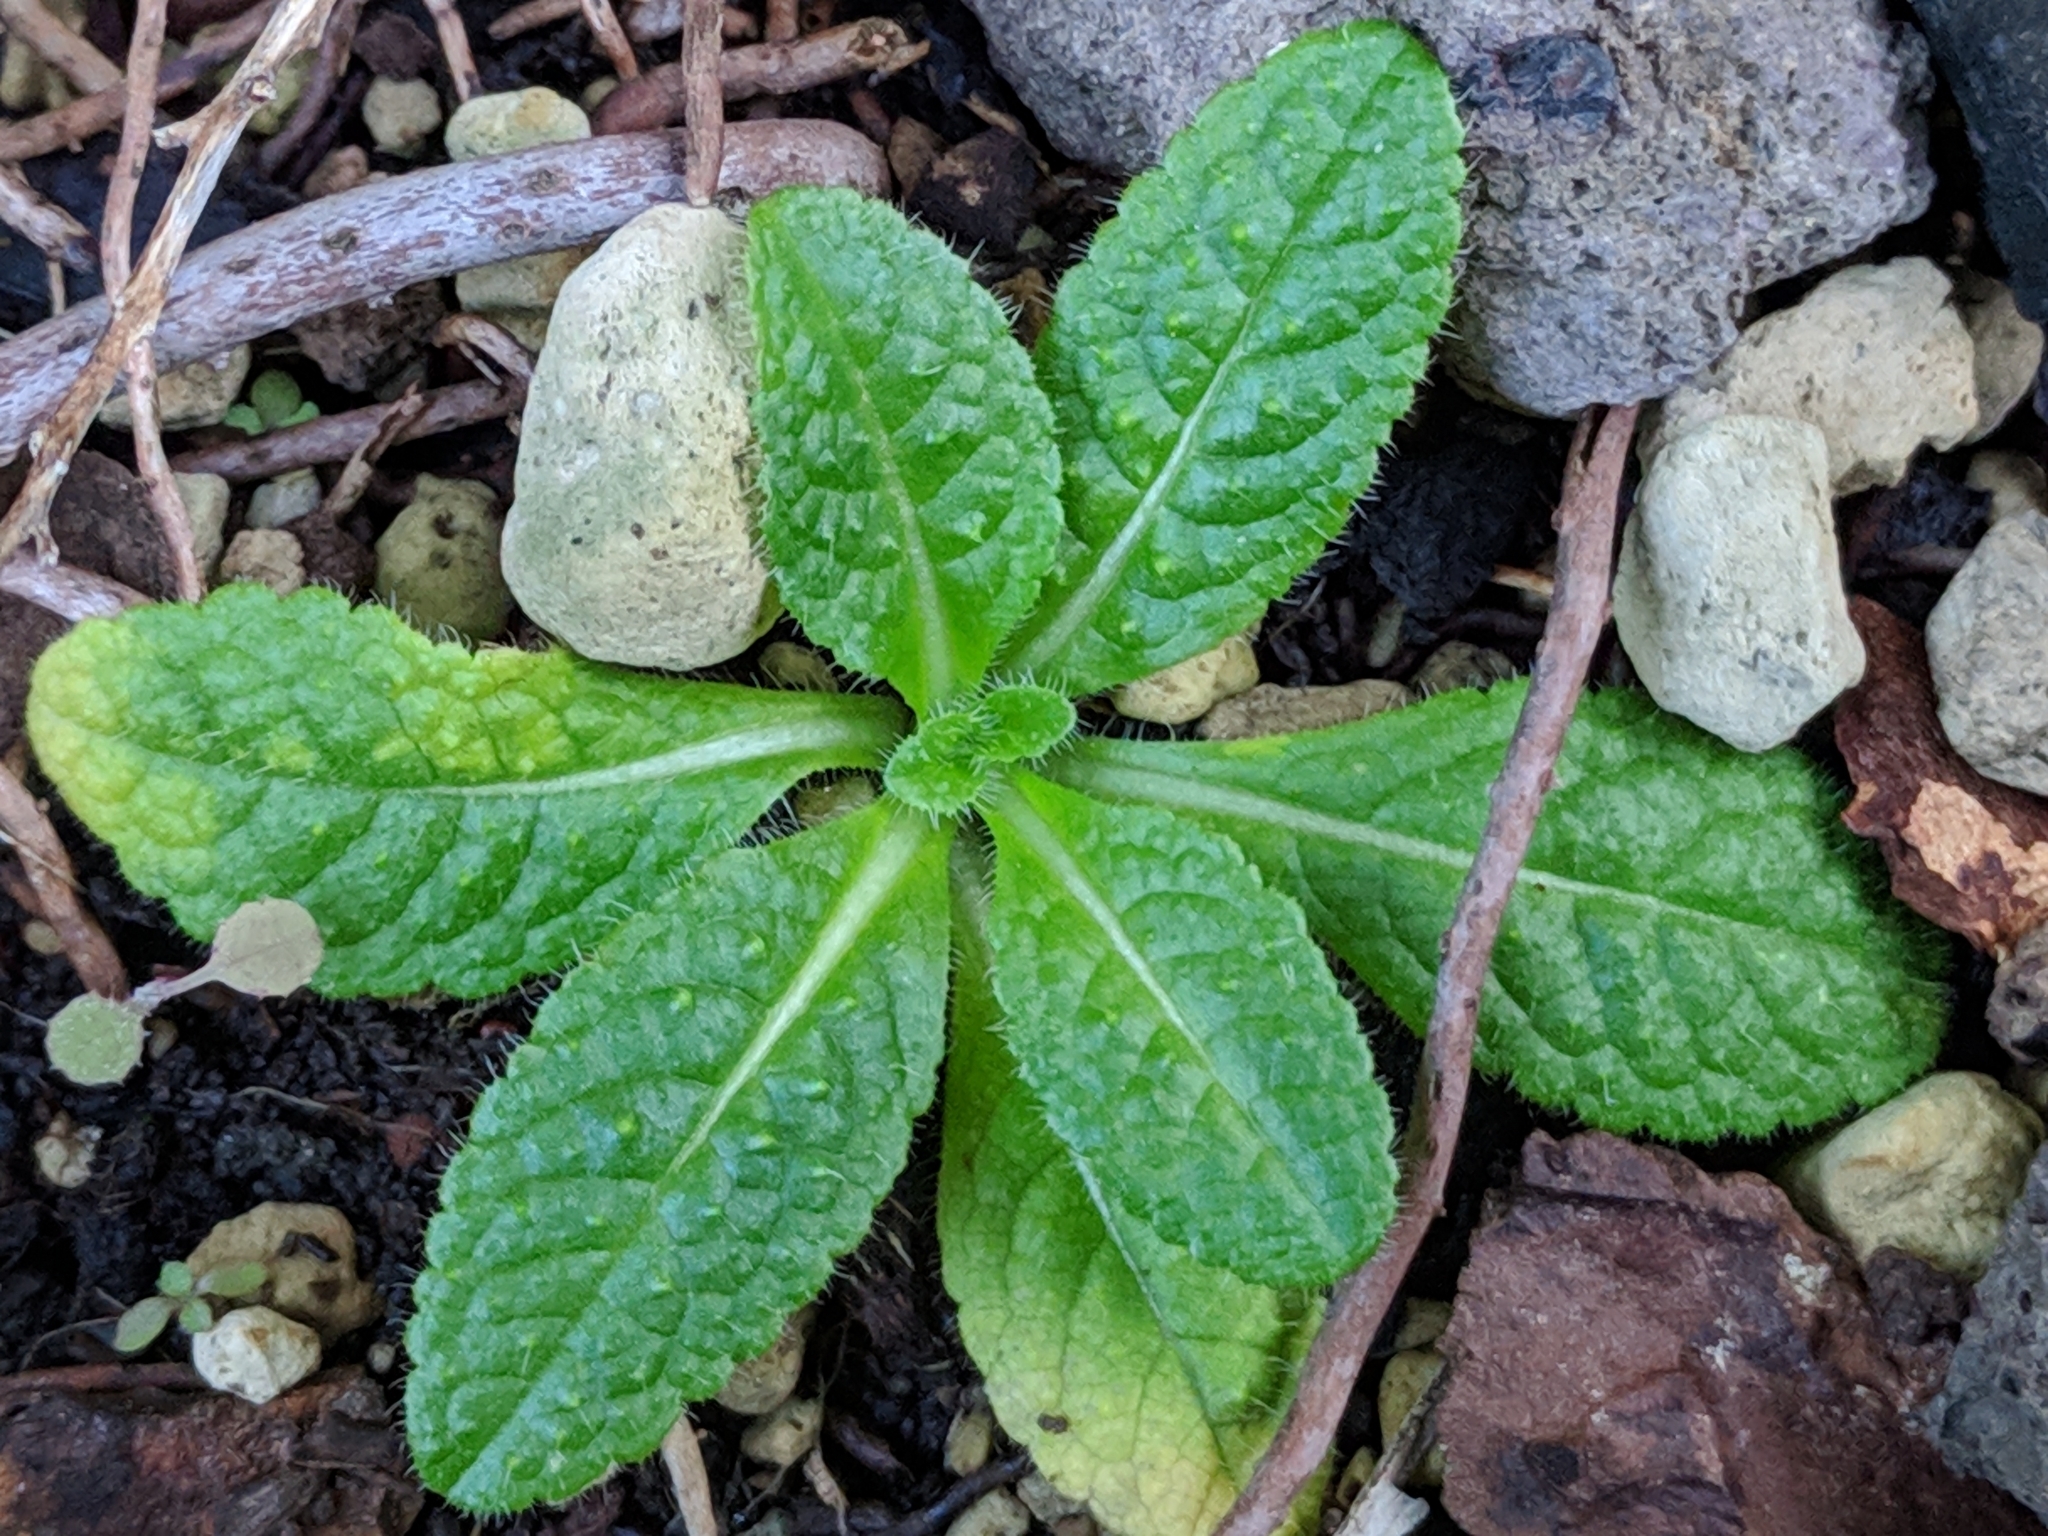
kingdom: Plantae
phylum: Tracheophyta
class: Magnoliopsida
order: Dipsacales
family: Caprifoliaceae
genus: Dipsacus
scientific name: Dipsacus fullonum
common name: Teasel
